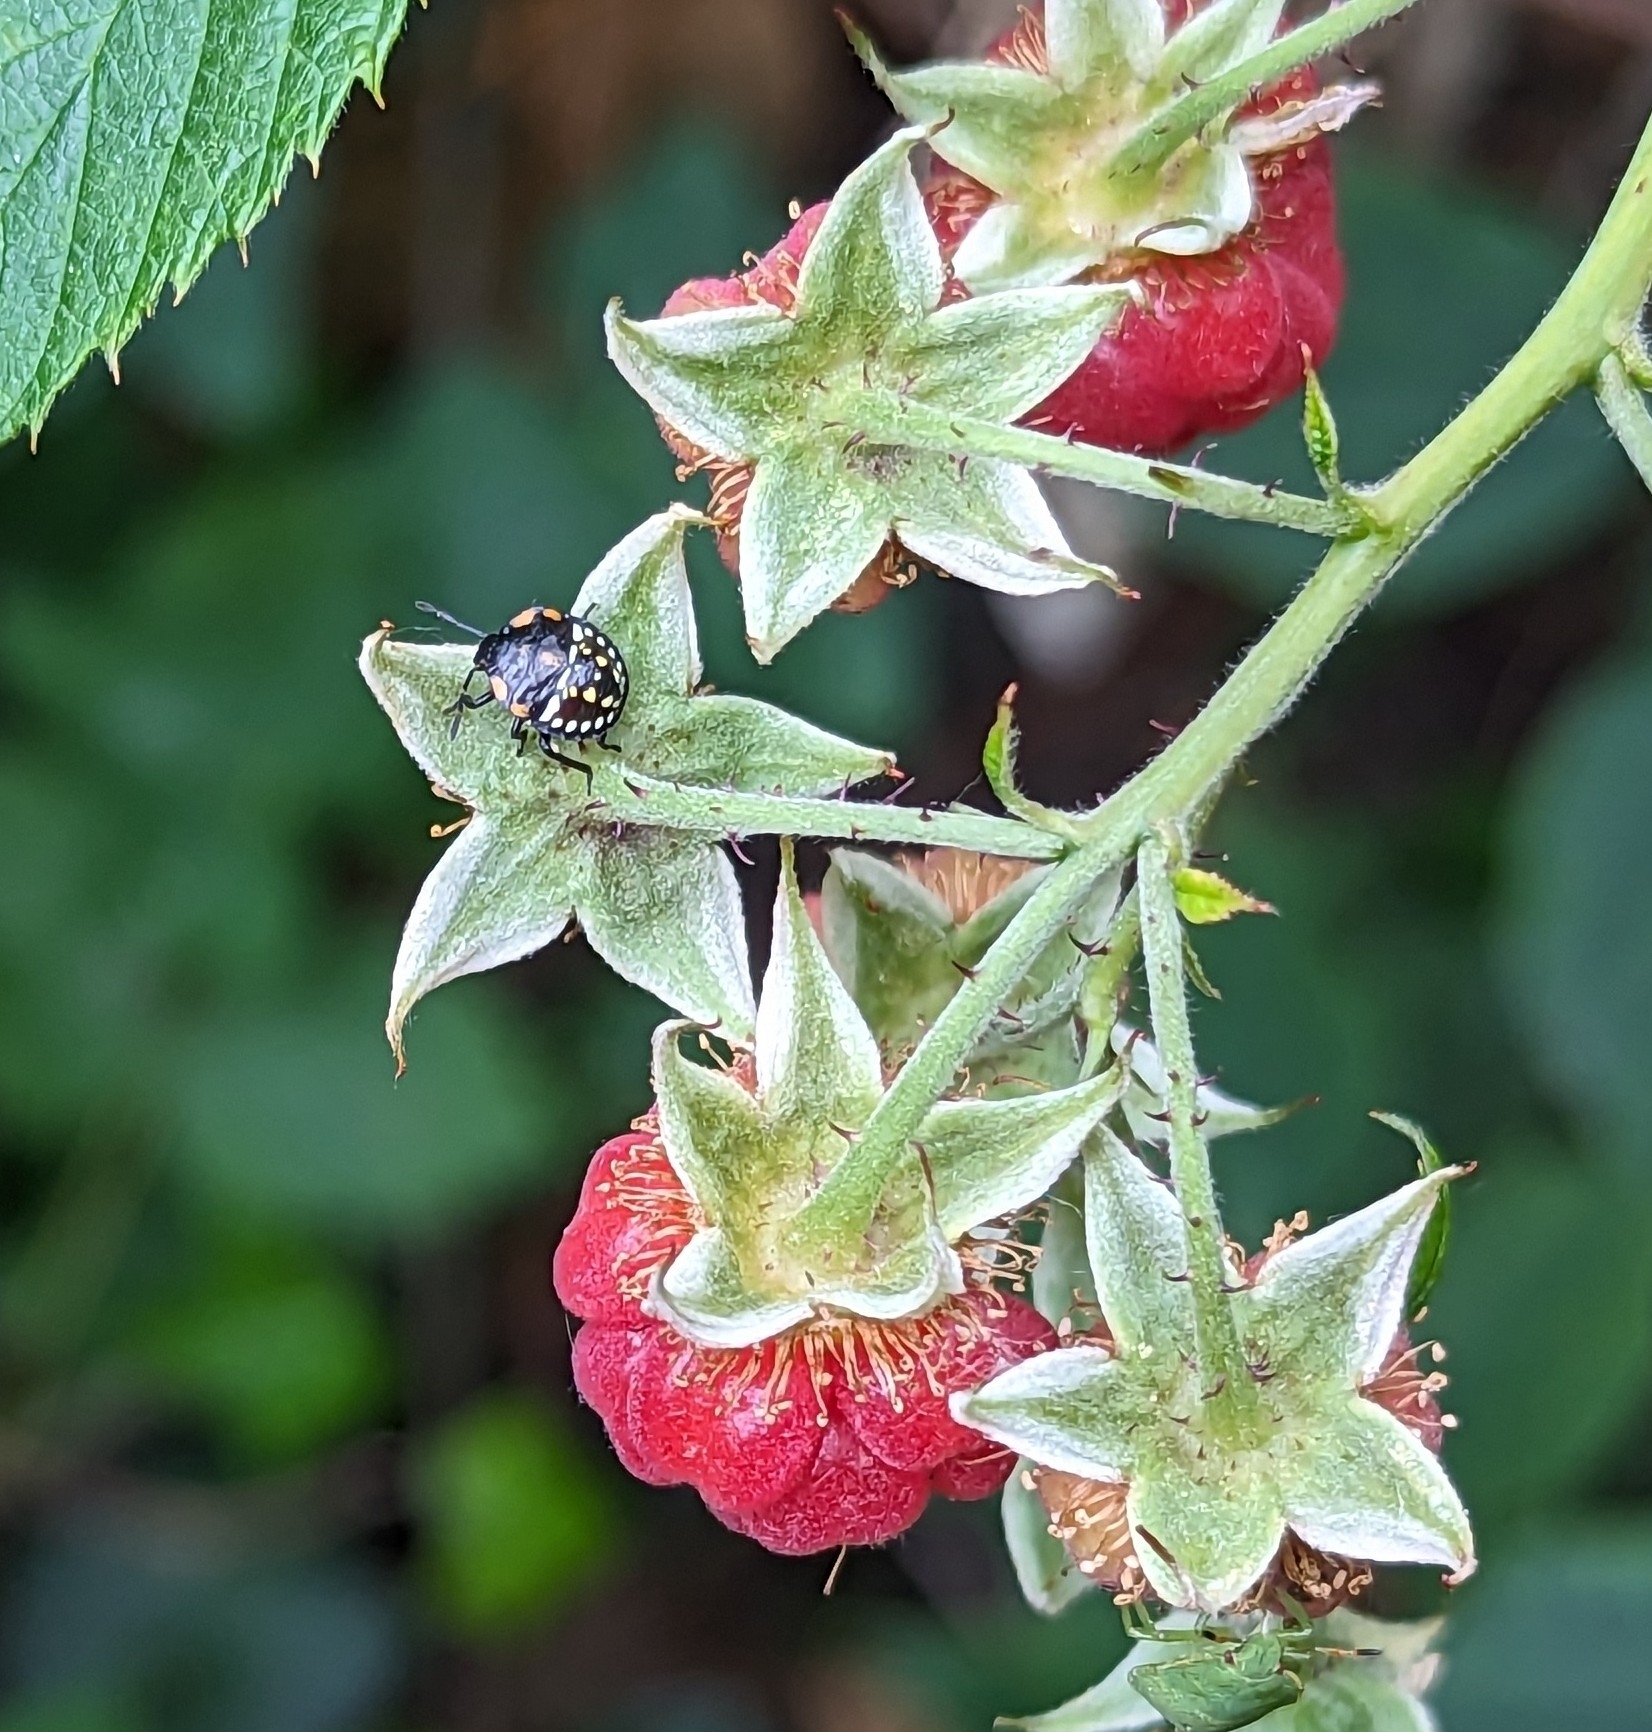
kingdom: Animalia
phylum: Arthropoda
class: Insecta
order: Hemiptera
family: Pentatomidae
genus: Nezara
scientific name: Nezara viridula
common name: Southern green stink bug
